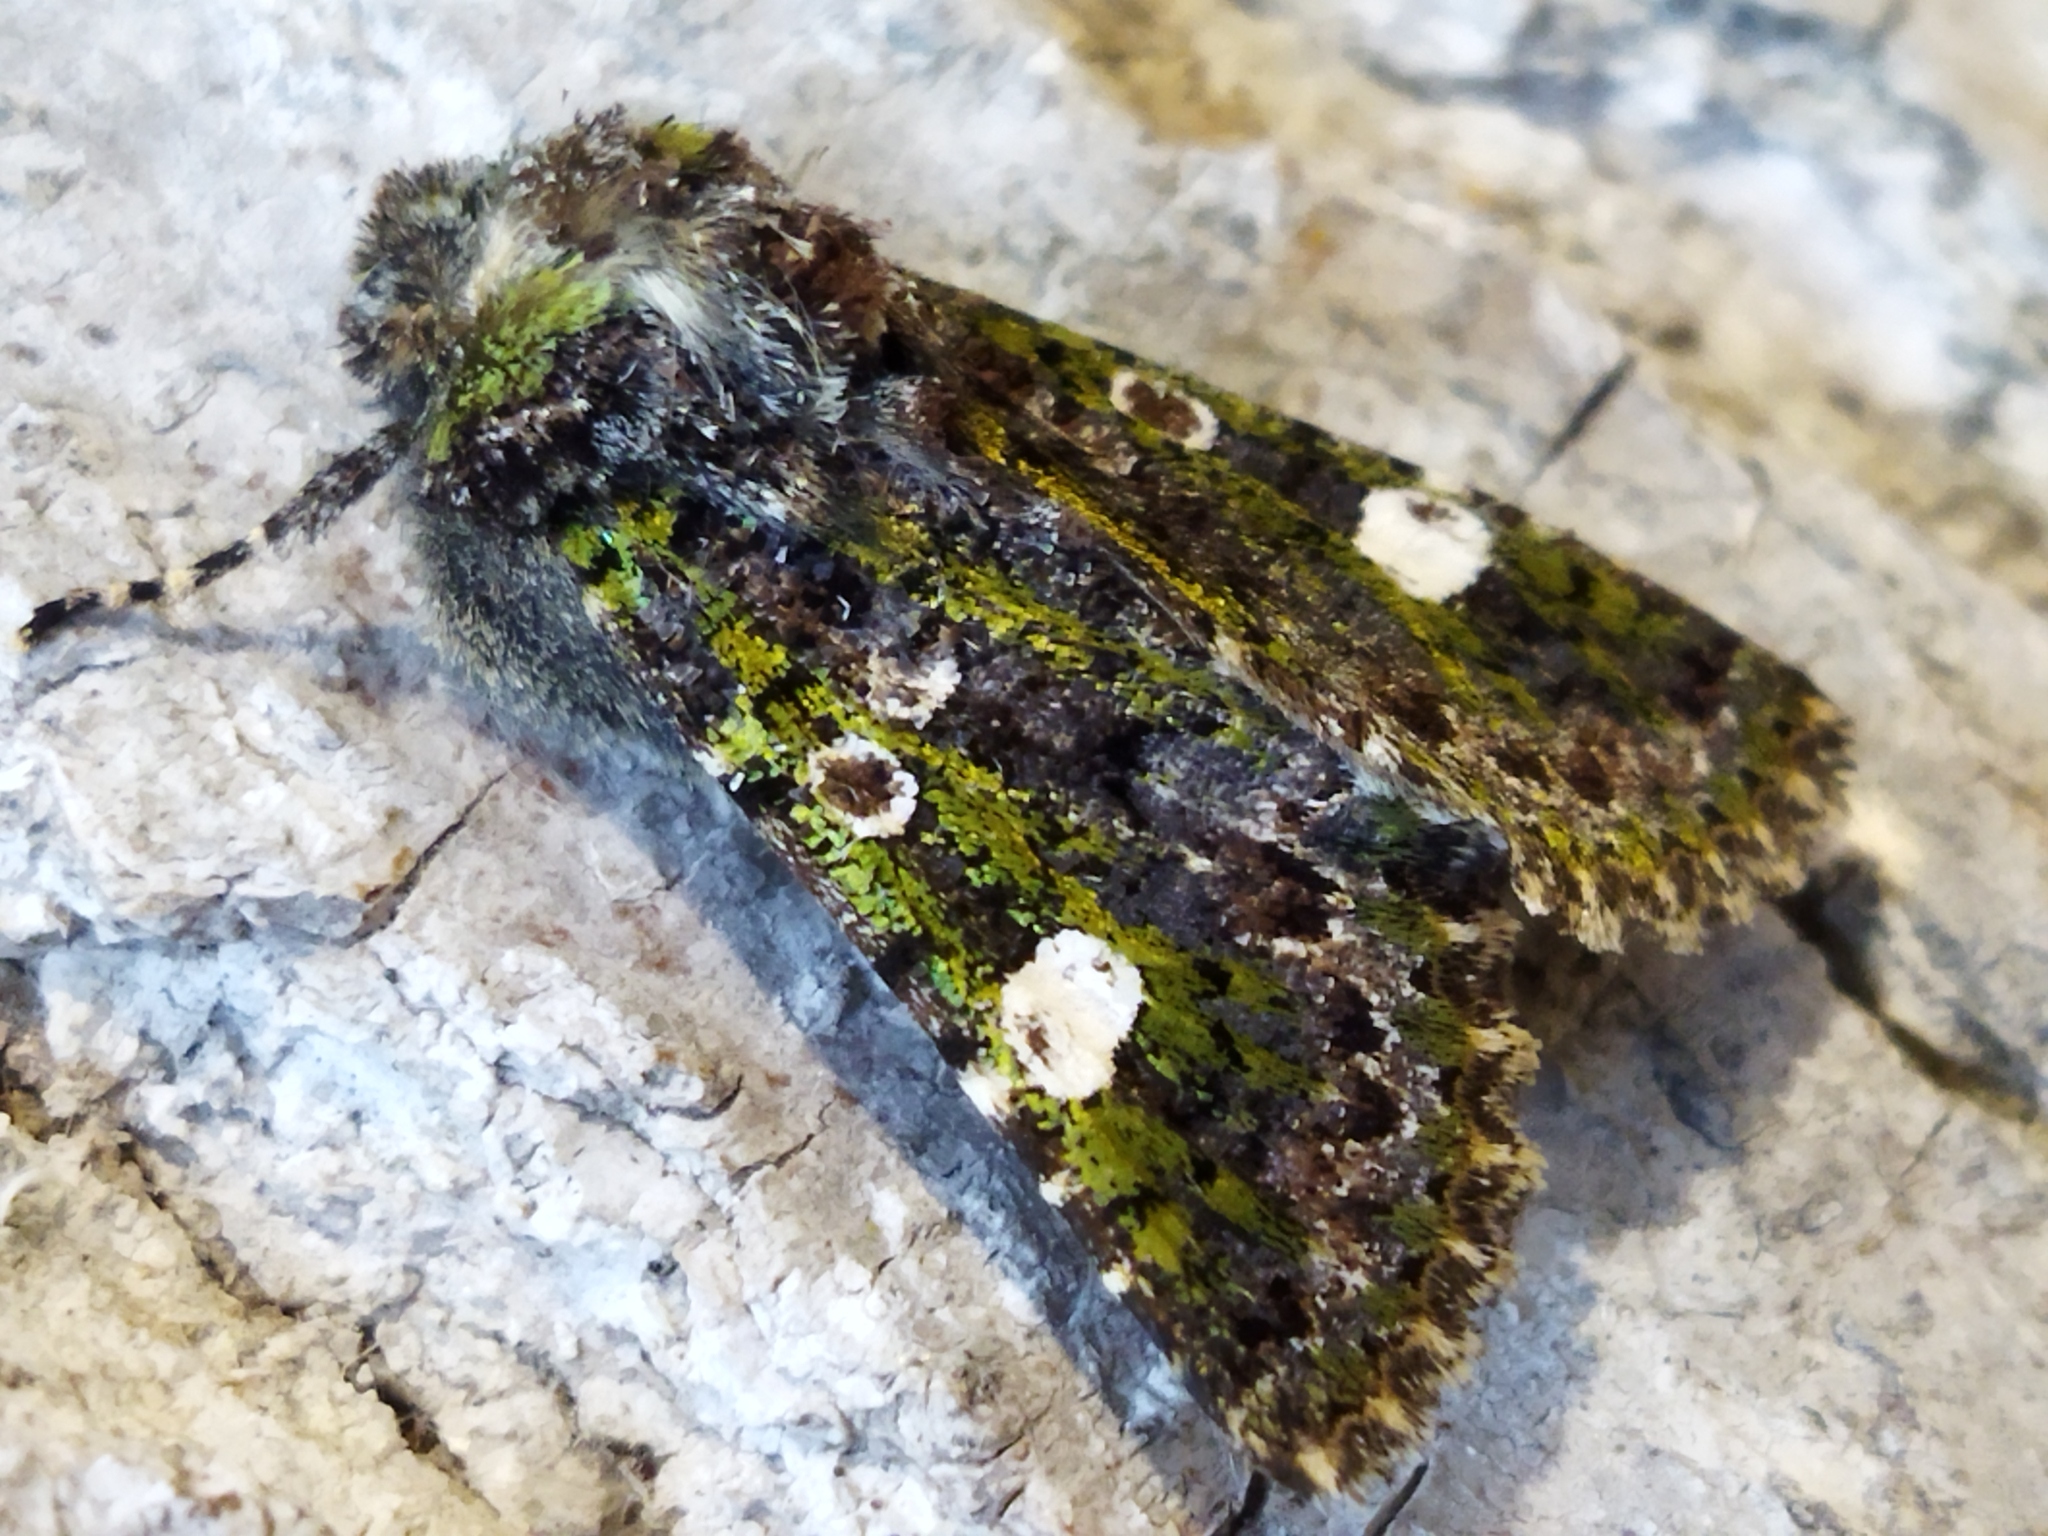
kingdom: Animalia
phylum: Arthropoda
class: Insecta
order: Lepidoptera
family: Noctuidae
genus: Valeria
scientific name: Valeria oleagina
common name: Green-brindled dot
